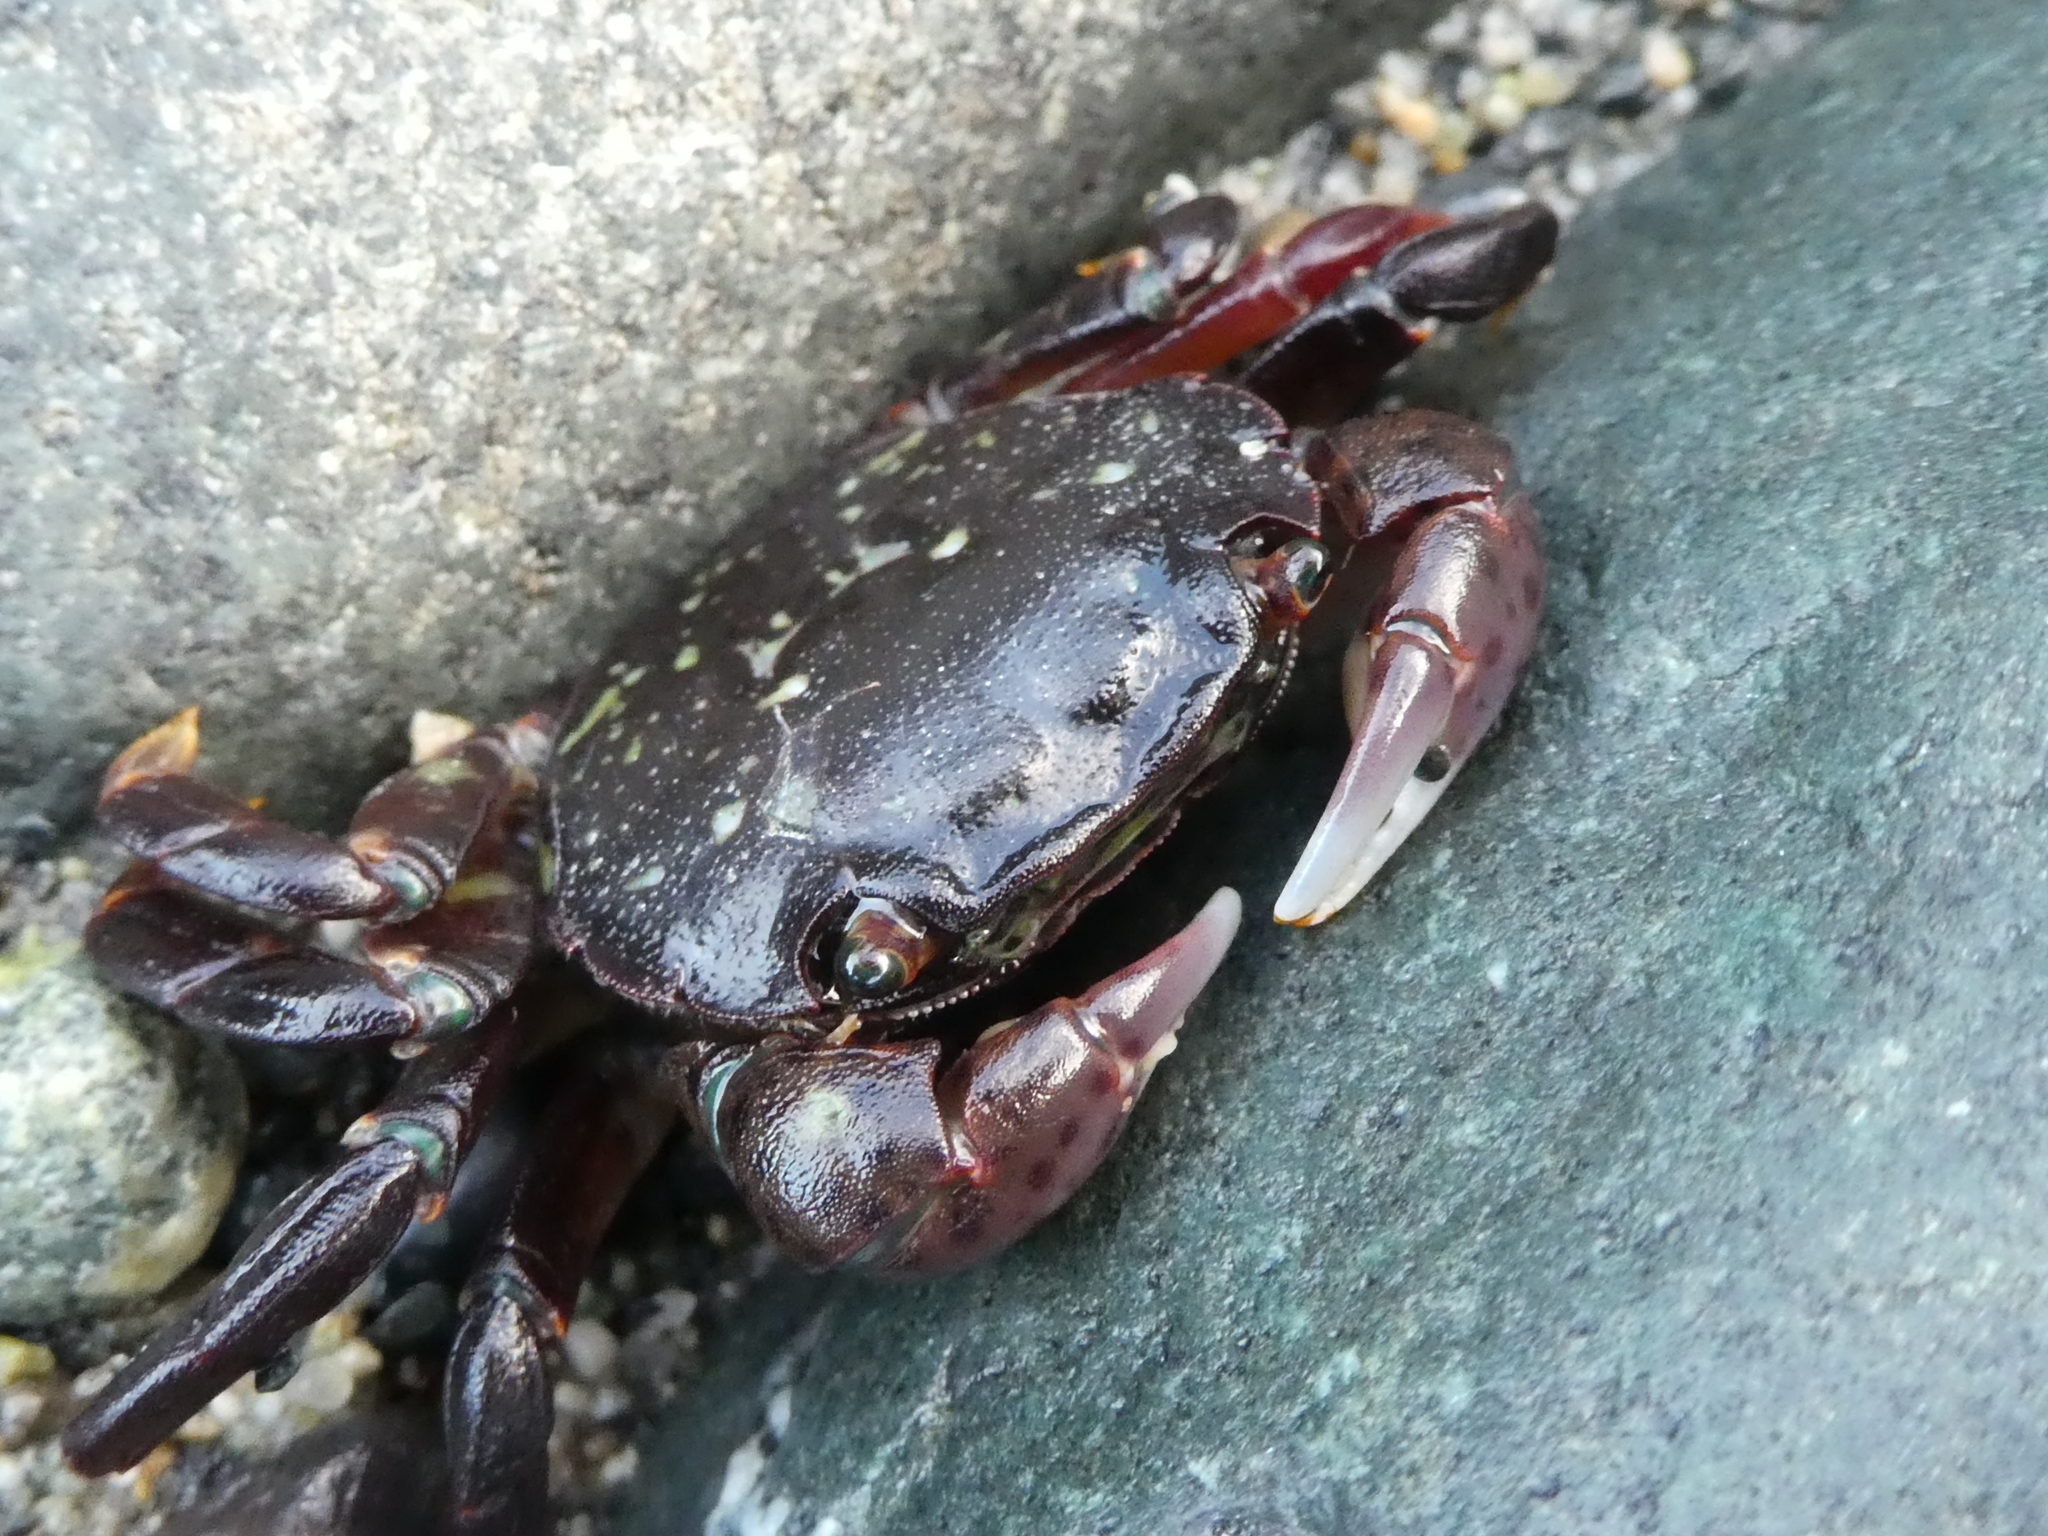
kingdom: Animalia
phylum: Arthropoda
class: Malacostraca
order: Decapoda
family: Varunidae
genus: Hemigrapsus
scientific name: Hemigrapsus nudus
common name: Purple shore crab
